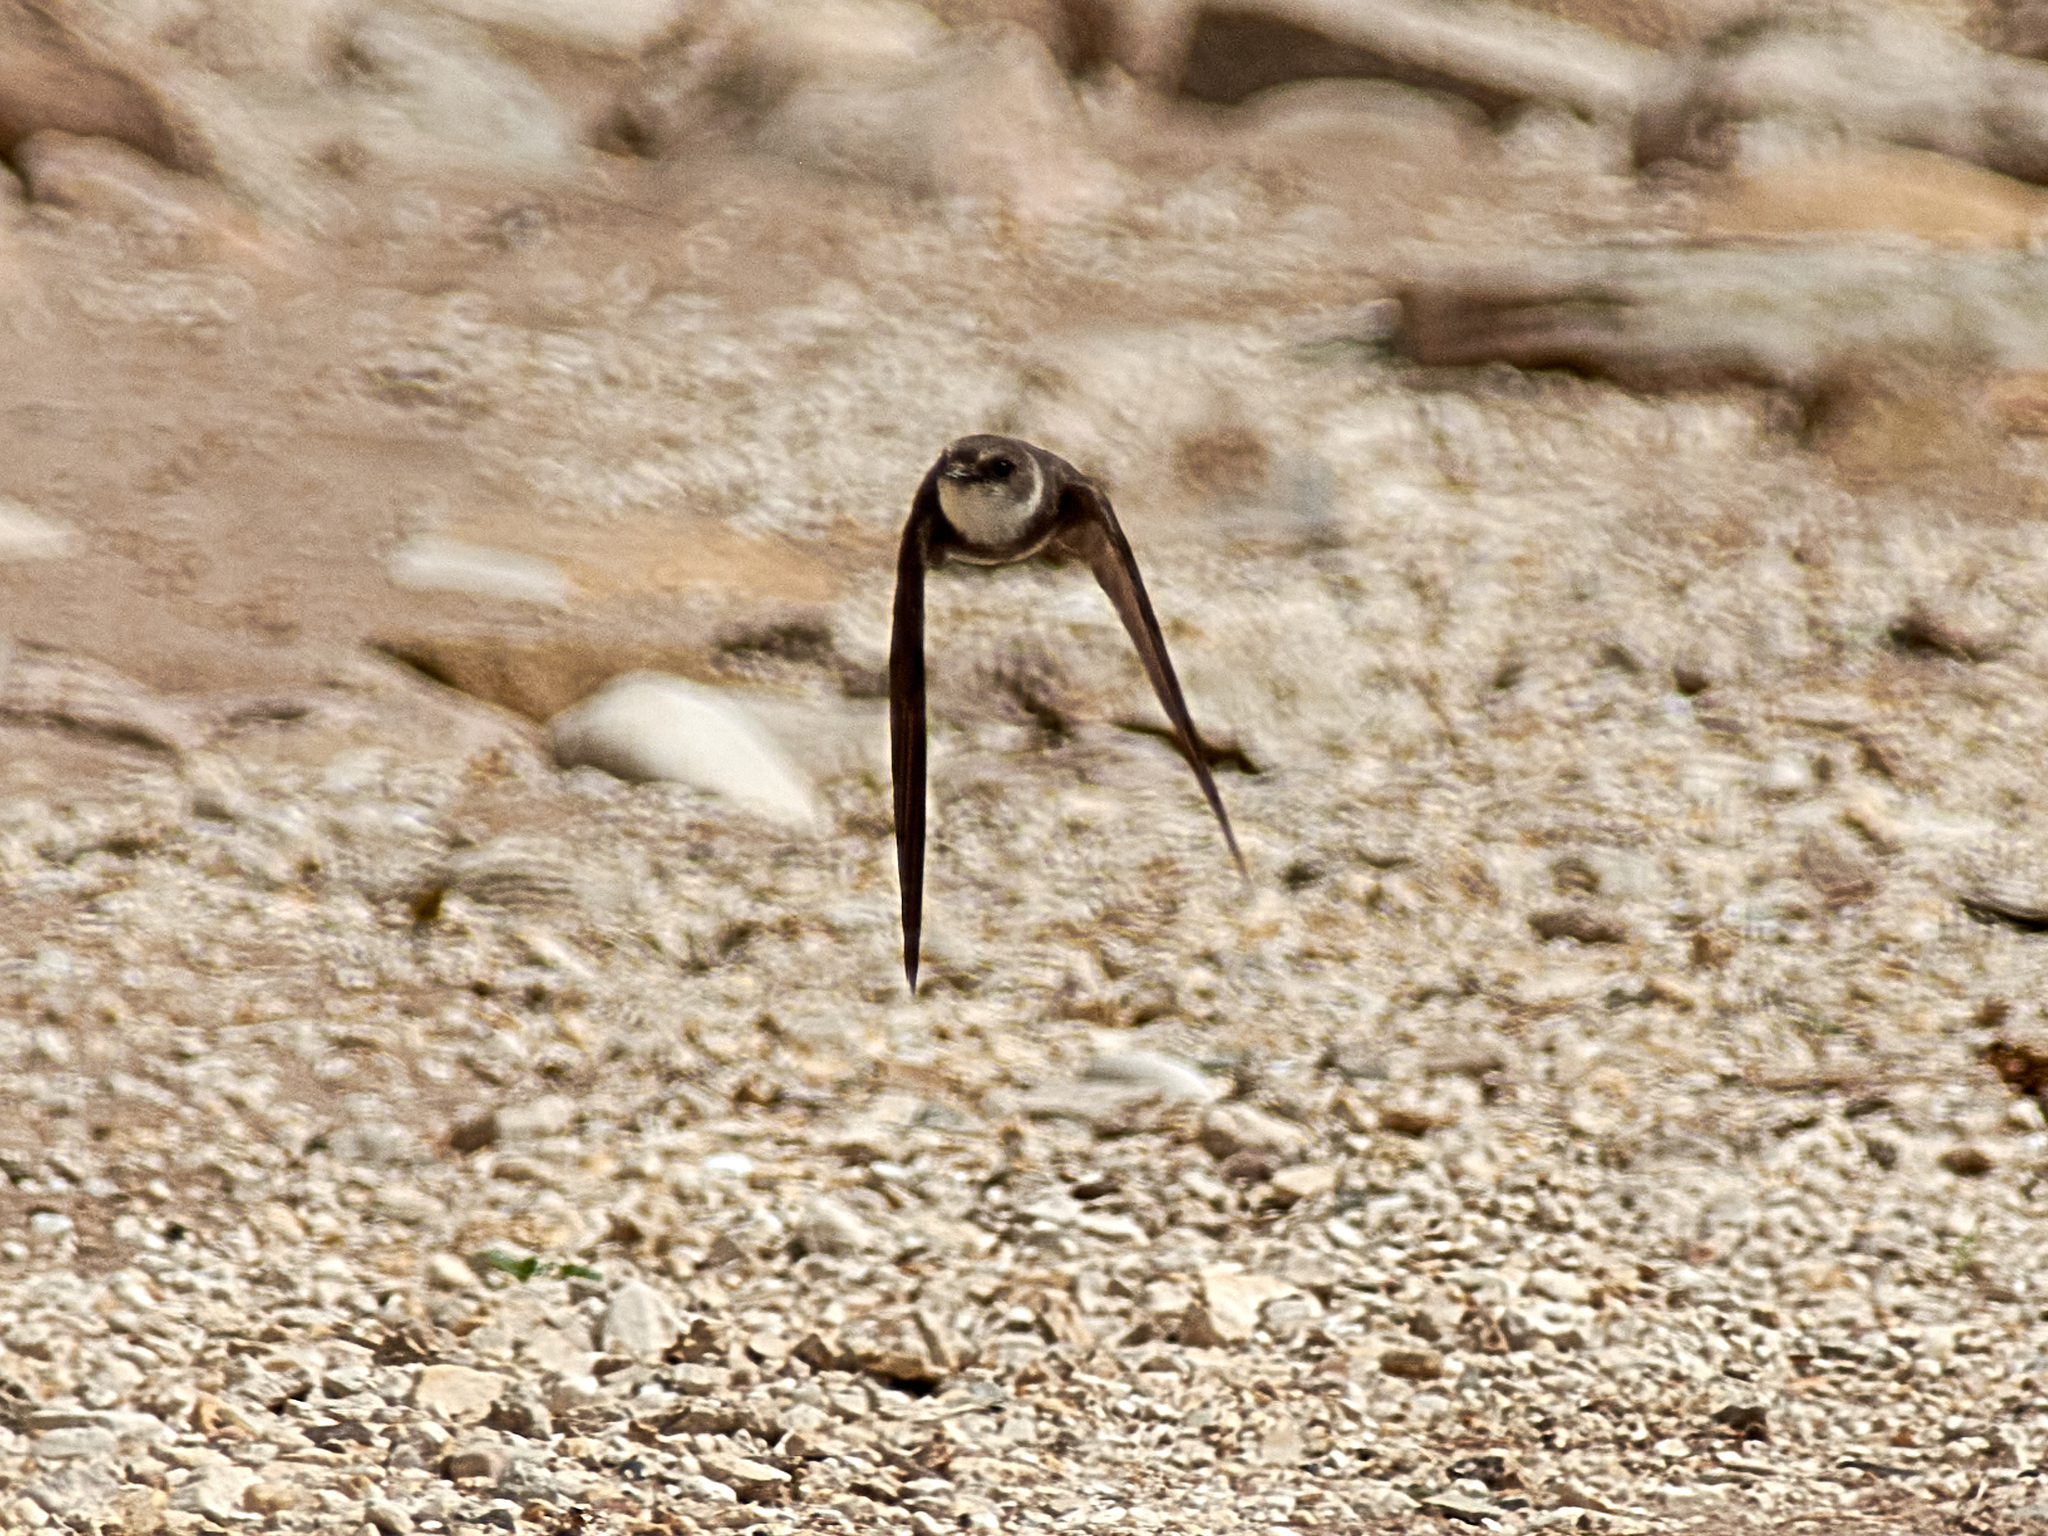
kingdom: Animalia
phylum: Chordata
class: Aves
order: Passeriformes
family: Hirundinidae
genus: Riparia
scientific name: Riparia riparia
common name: Sand martin
